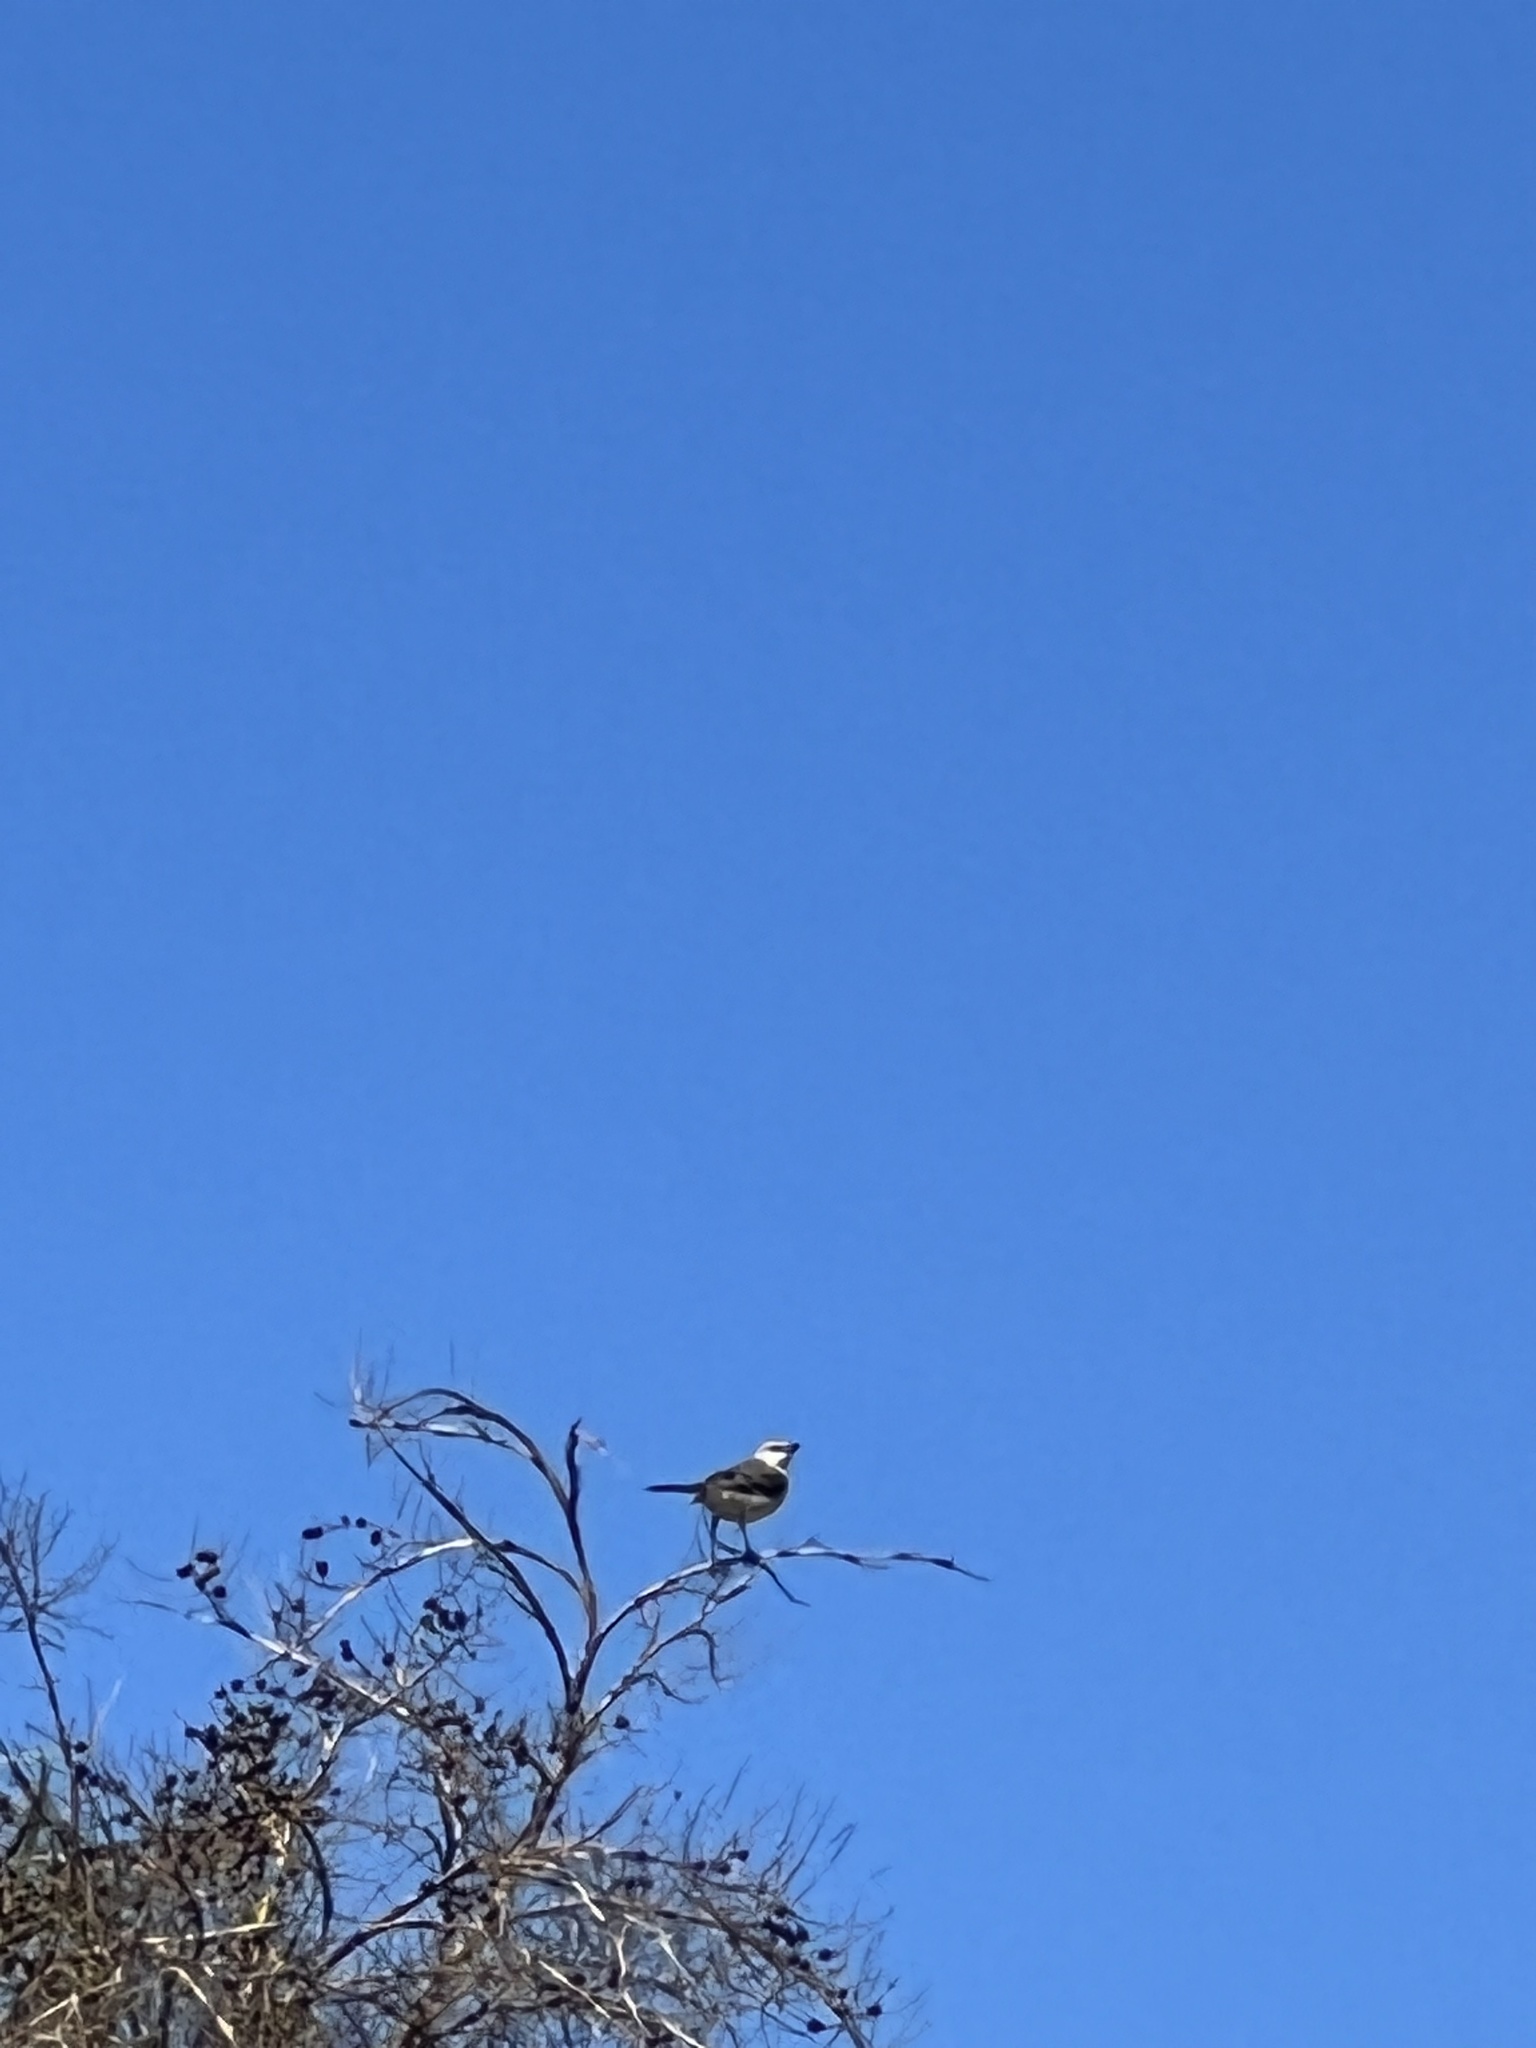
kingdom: Animalia
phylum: Chordata
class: Aves
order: Passeriformes
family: Mimidae
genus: Mimus
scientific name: Mimus polyglottos
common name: Northern mockingbird
